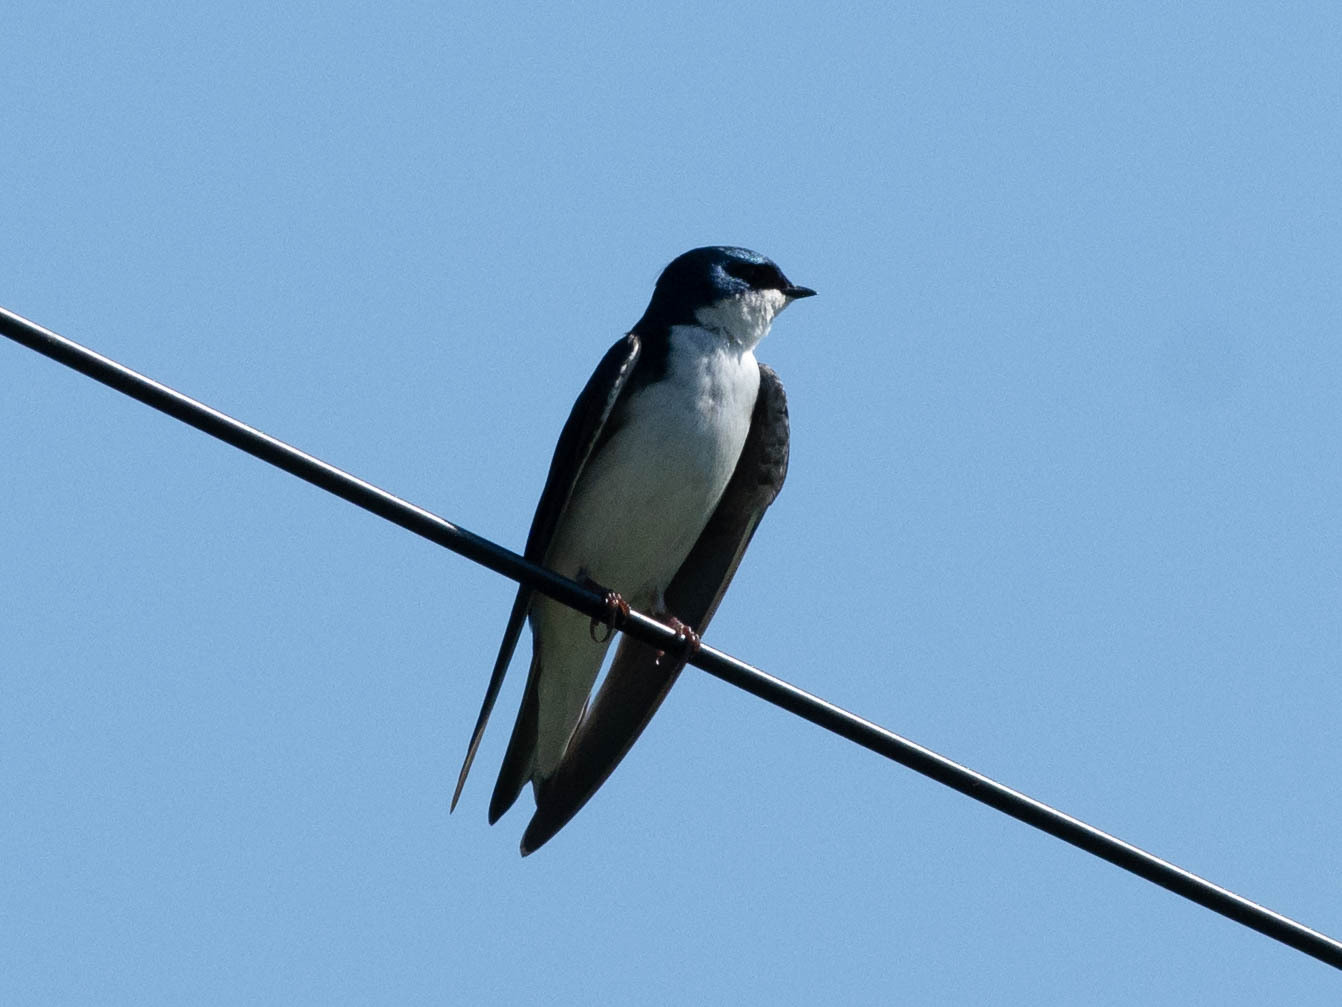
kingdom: Animalia
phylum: Chordata
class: Aves
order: Passeriformes
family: Hirundinidae
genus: Tachycineta
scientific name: Tachycineta bicolor
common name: Tree swallow
